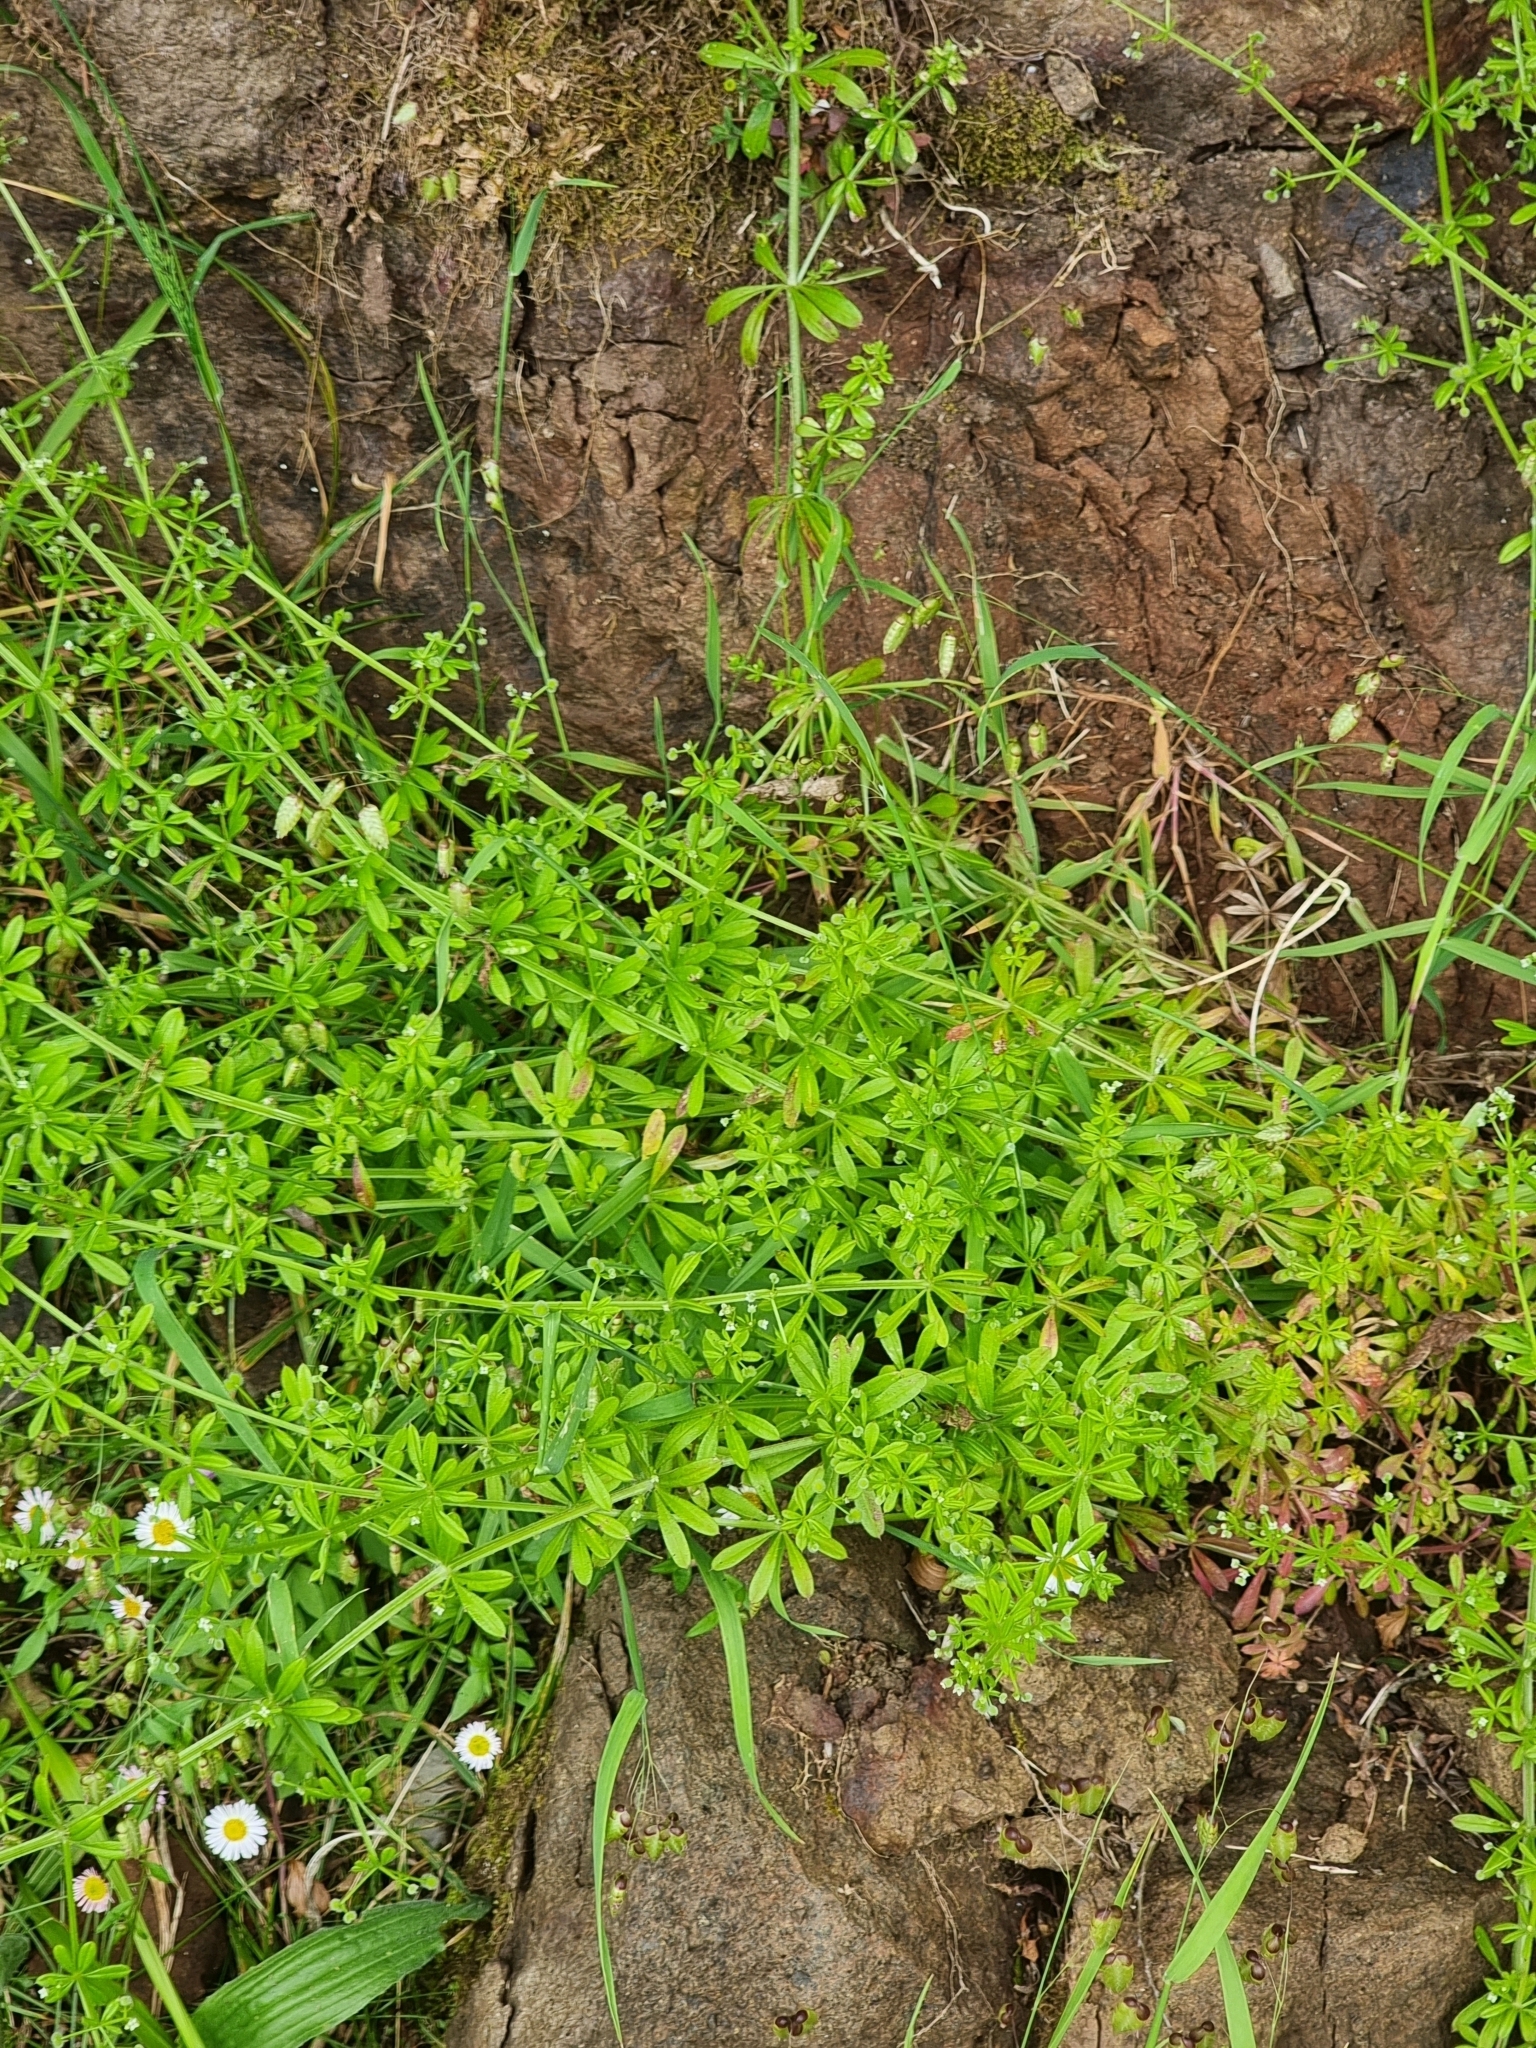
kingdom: Plantae
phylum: Tracheophyta
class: Magnoliopsida
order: Gentianales
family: Rubiaceae
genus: Galium
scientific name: Galium aparine
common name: Cleavers
